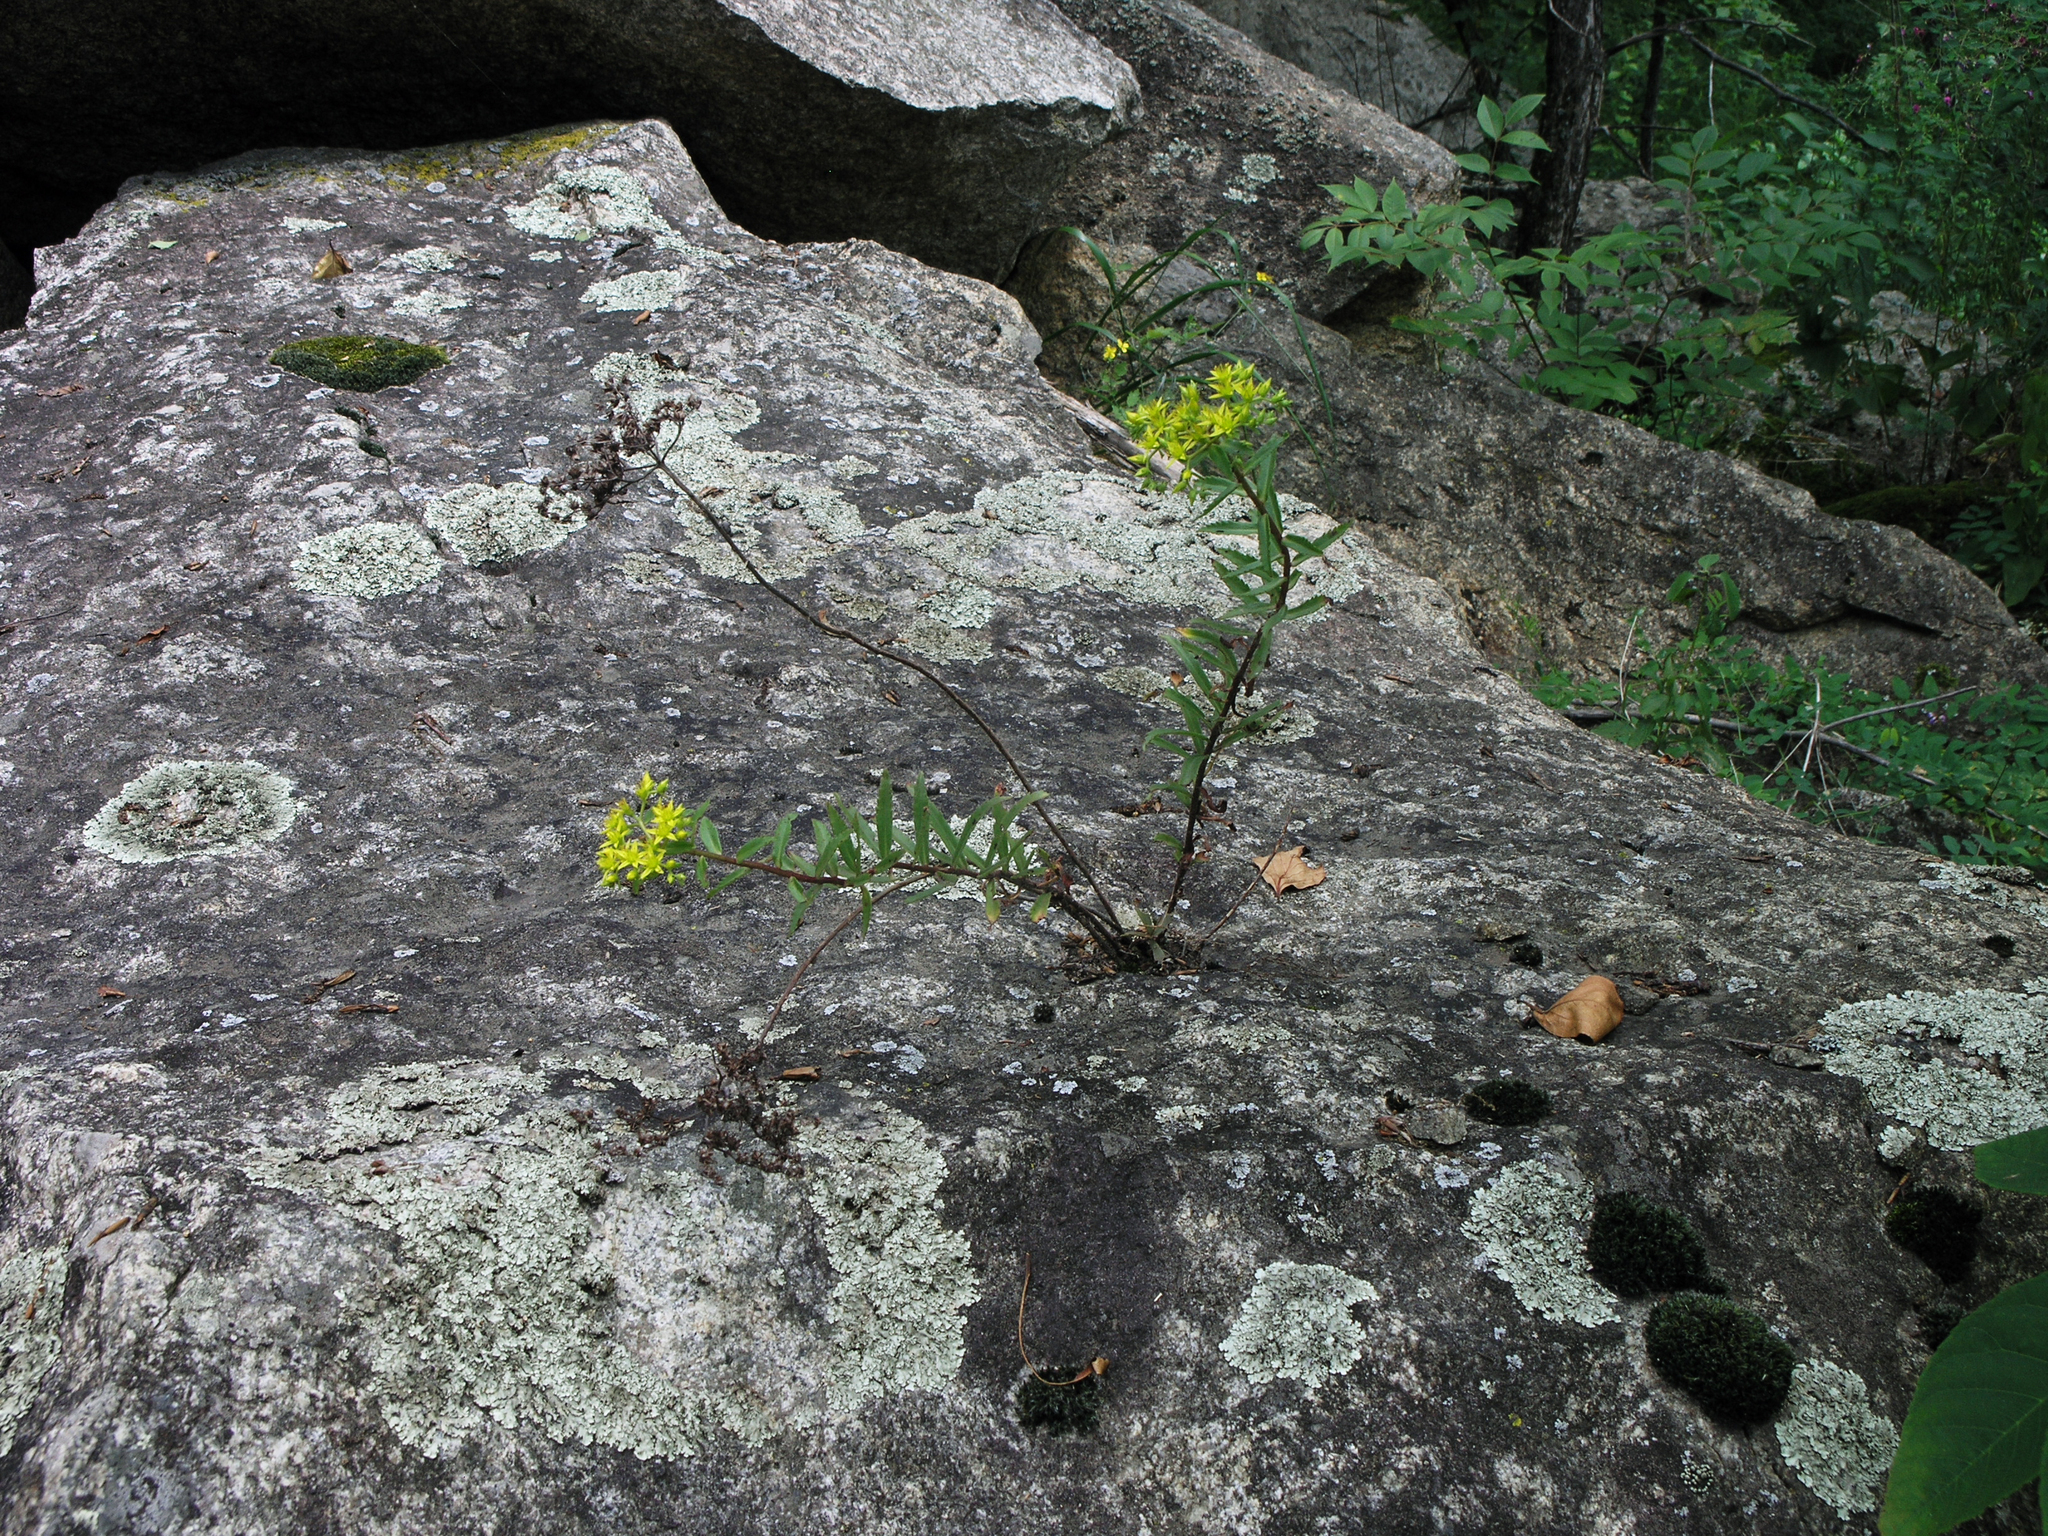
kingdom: Plantae
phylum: Tracheophyta
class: Magnoliopsida
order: Saxifragales
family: Crassulaceae
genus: Phedimus
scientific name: Phedimus aizoon
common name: Orpin aizoon
